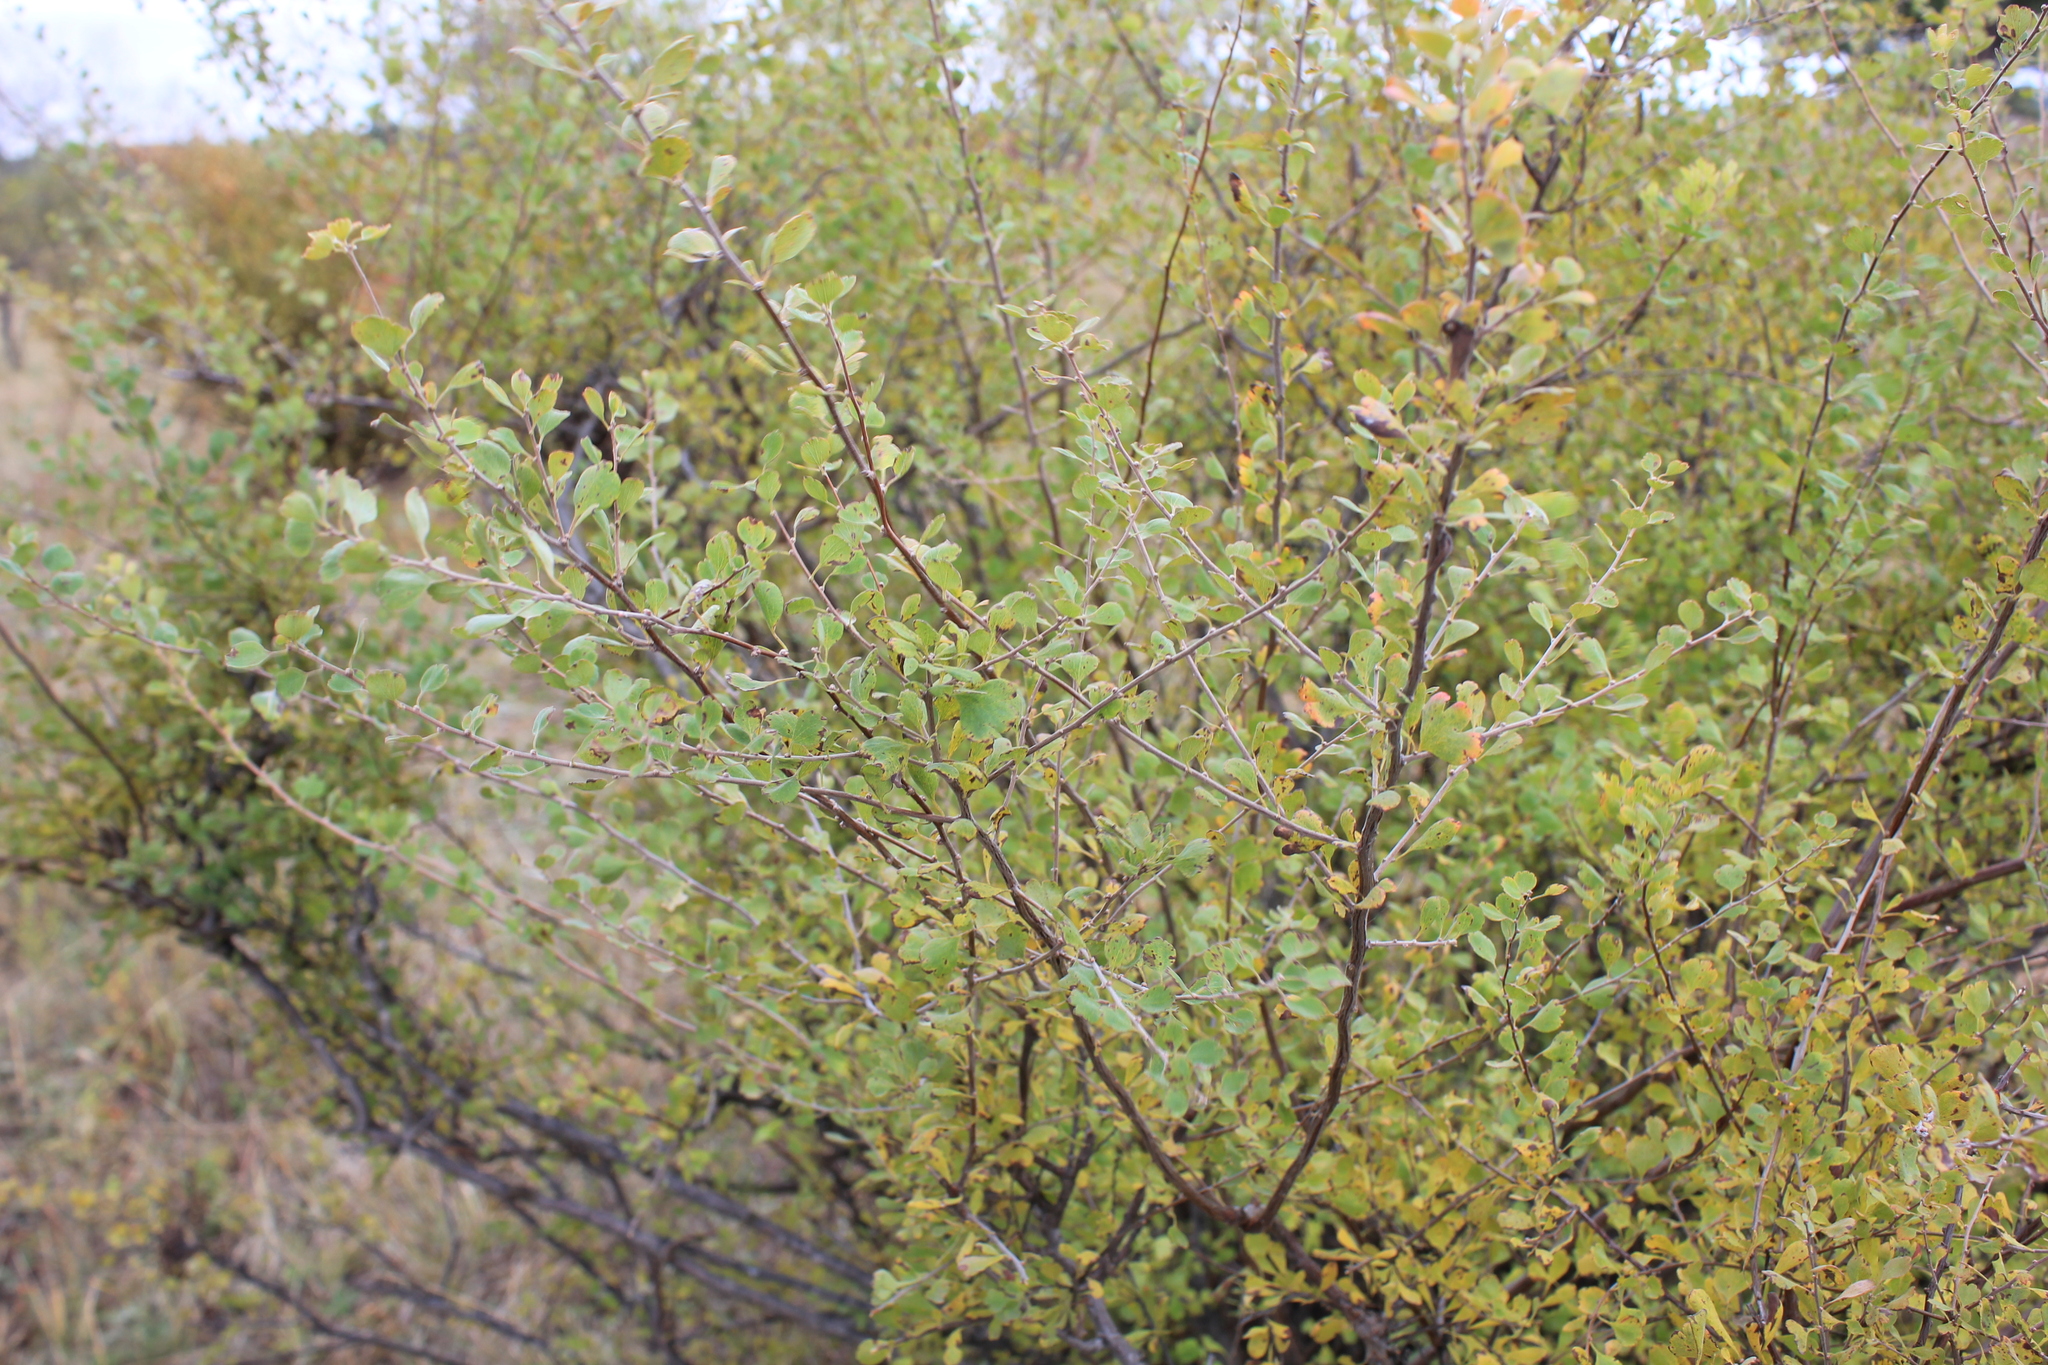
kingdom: Plantae
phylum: Tracheophyta
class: Magnoliopsida
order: Rosales
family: Rosaceae
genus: Spiraea
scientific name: Spiraea aquilegifolia
